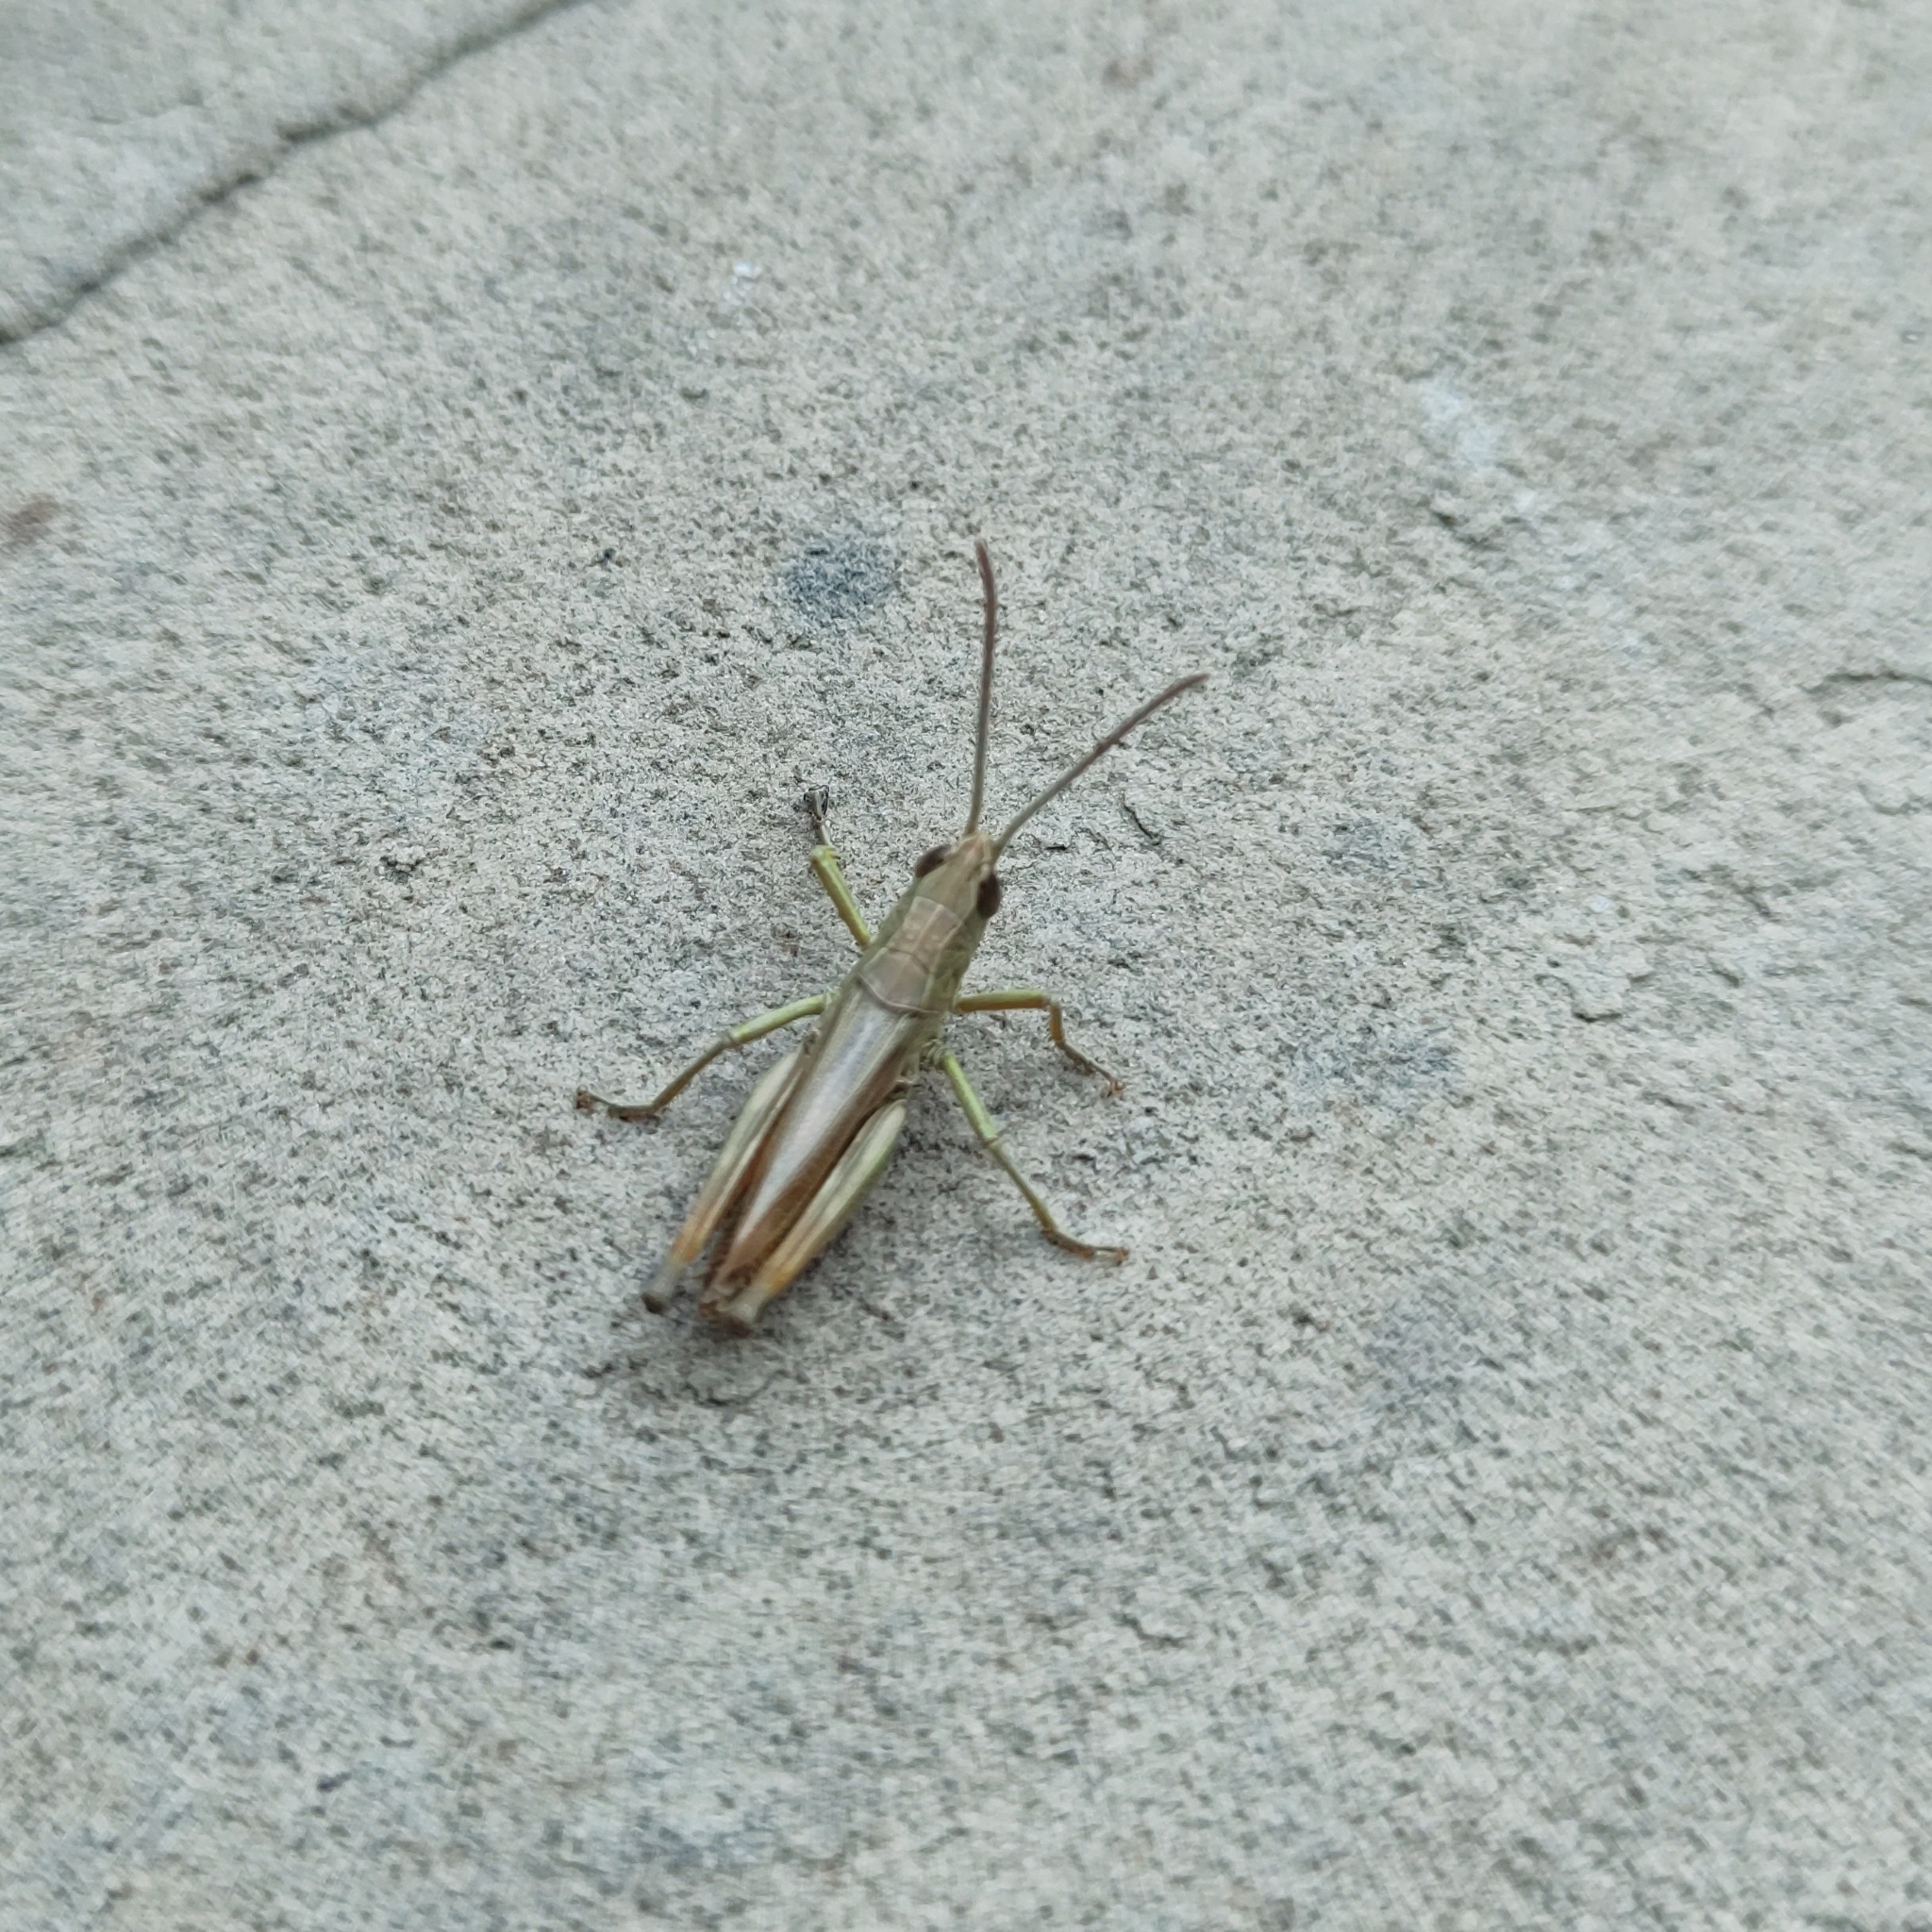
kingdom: Animalia
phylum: Arthropoda
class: Insecta
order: Orthoptera
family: Acrididae
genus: Pseudochorthippus
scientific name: Pseudochorthippus parallelus
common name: Meadow grasshopper
